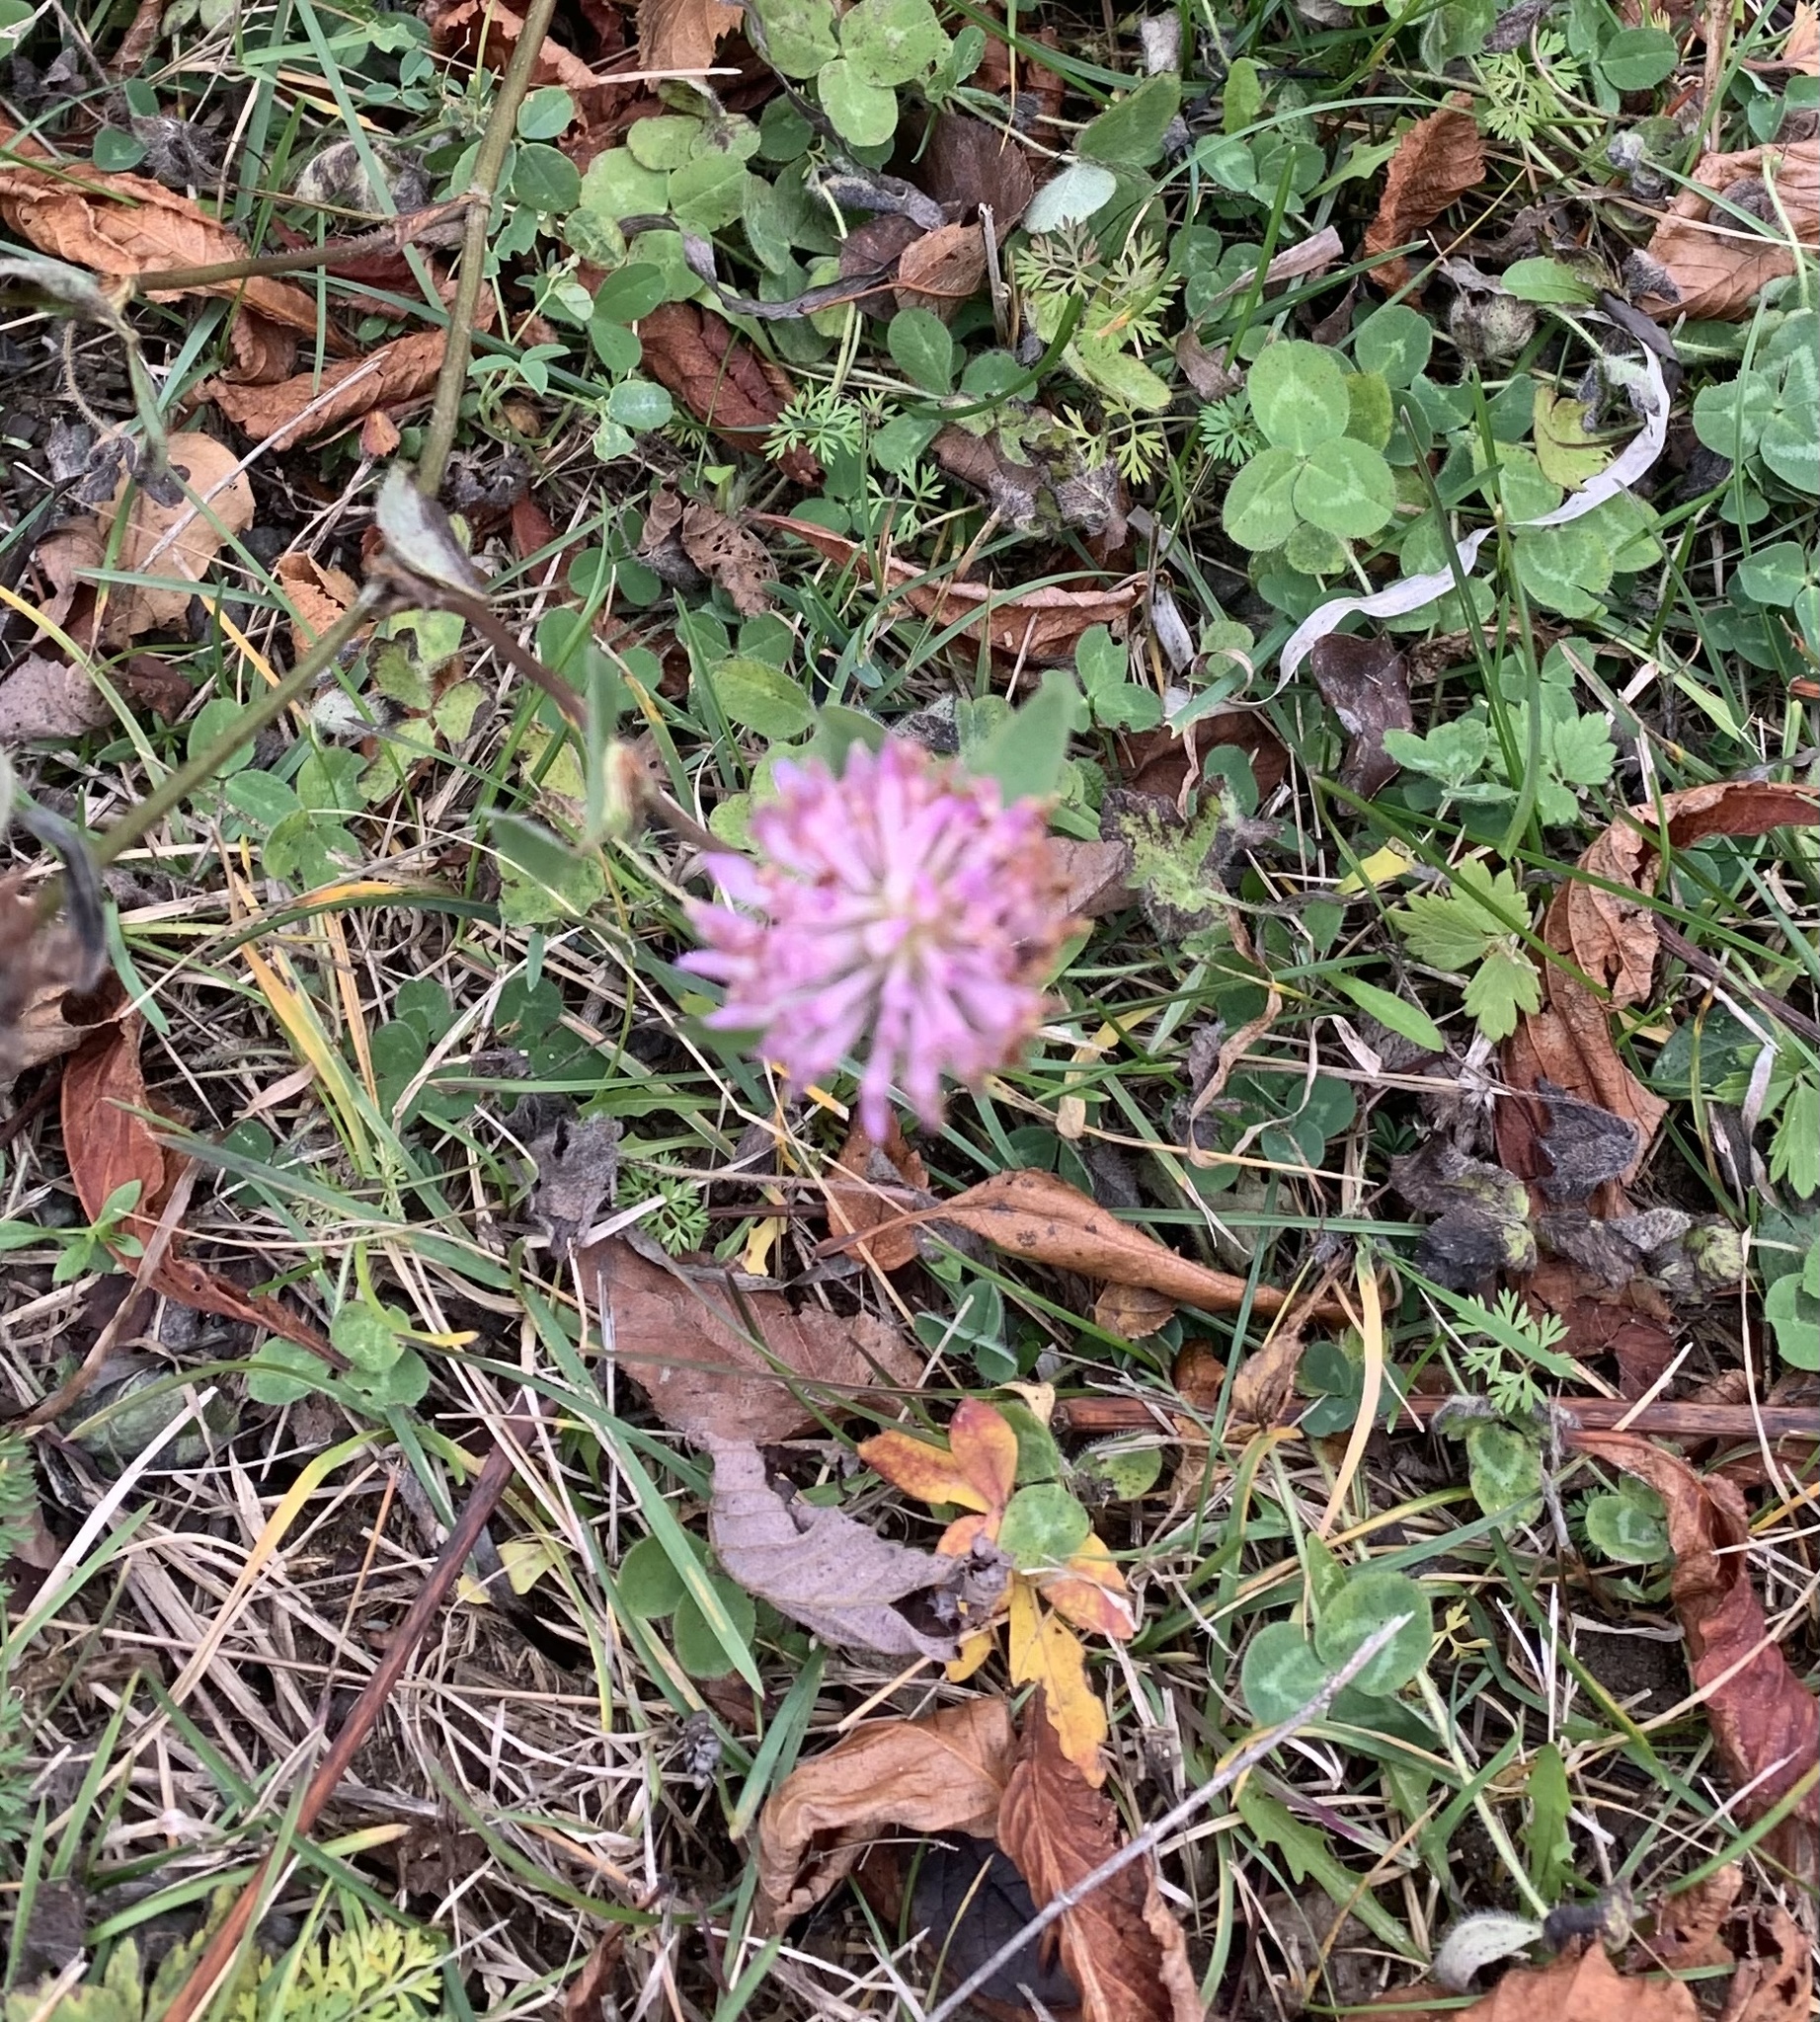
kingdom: Plantae
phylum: Tracheophyta
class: Magnoliopsida
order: Fabales
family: Fabaceae
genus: Trifolium
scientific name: Trifolium pratense
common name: Red clover
